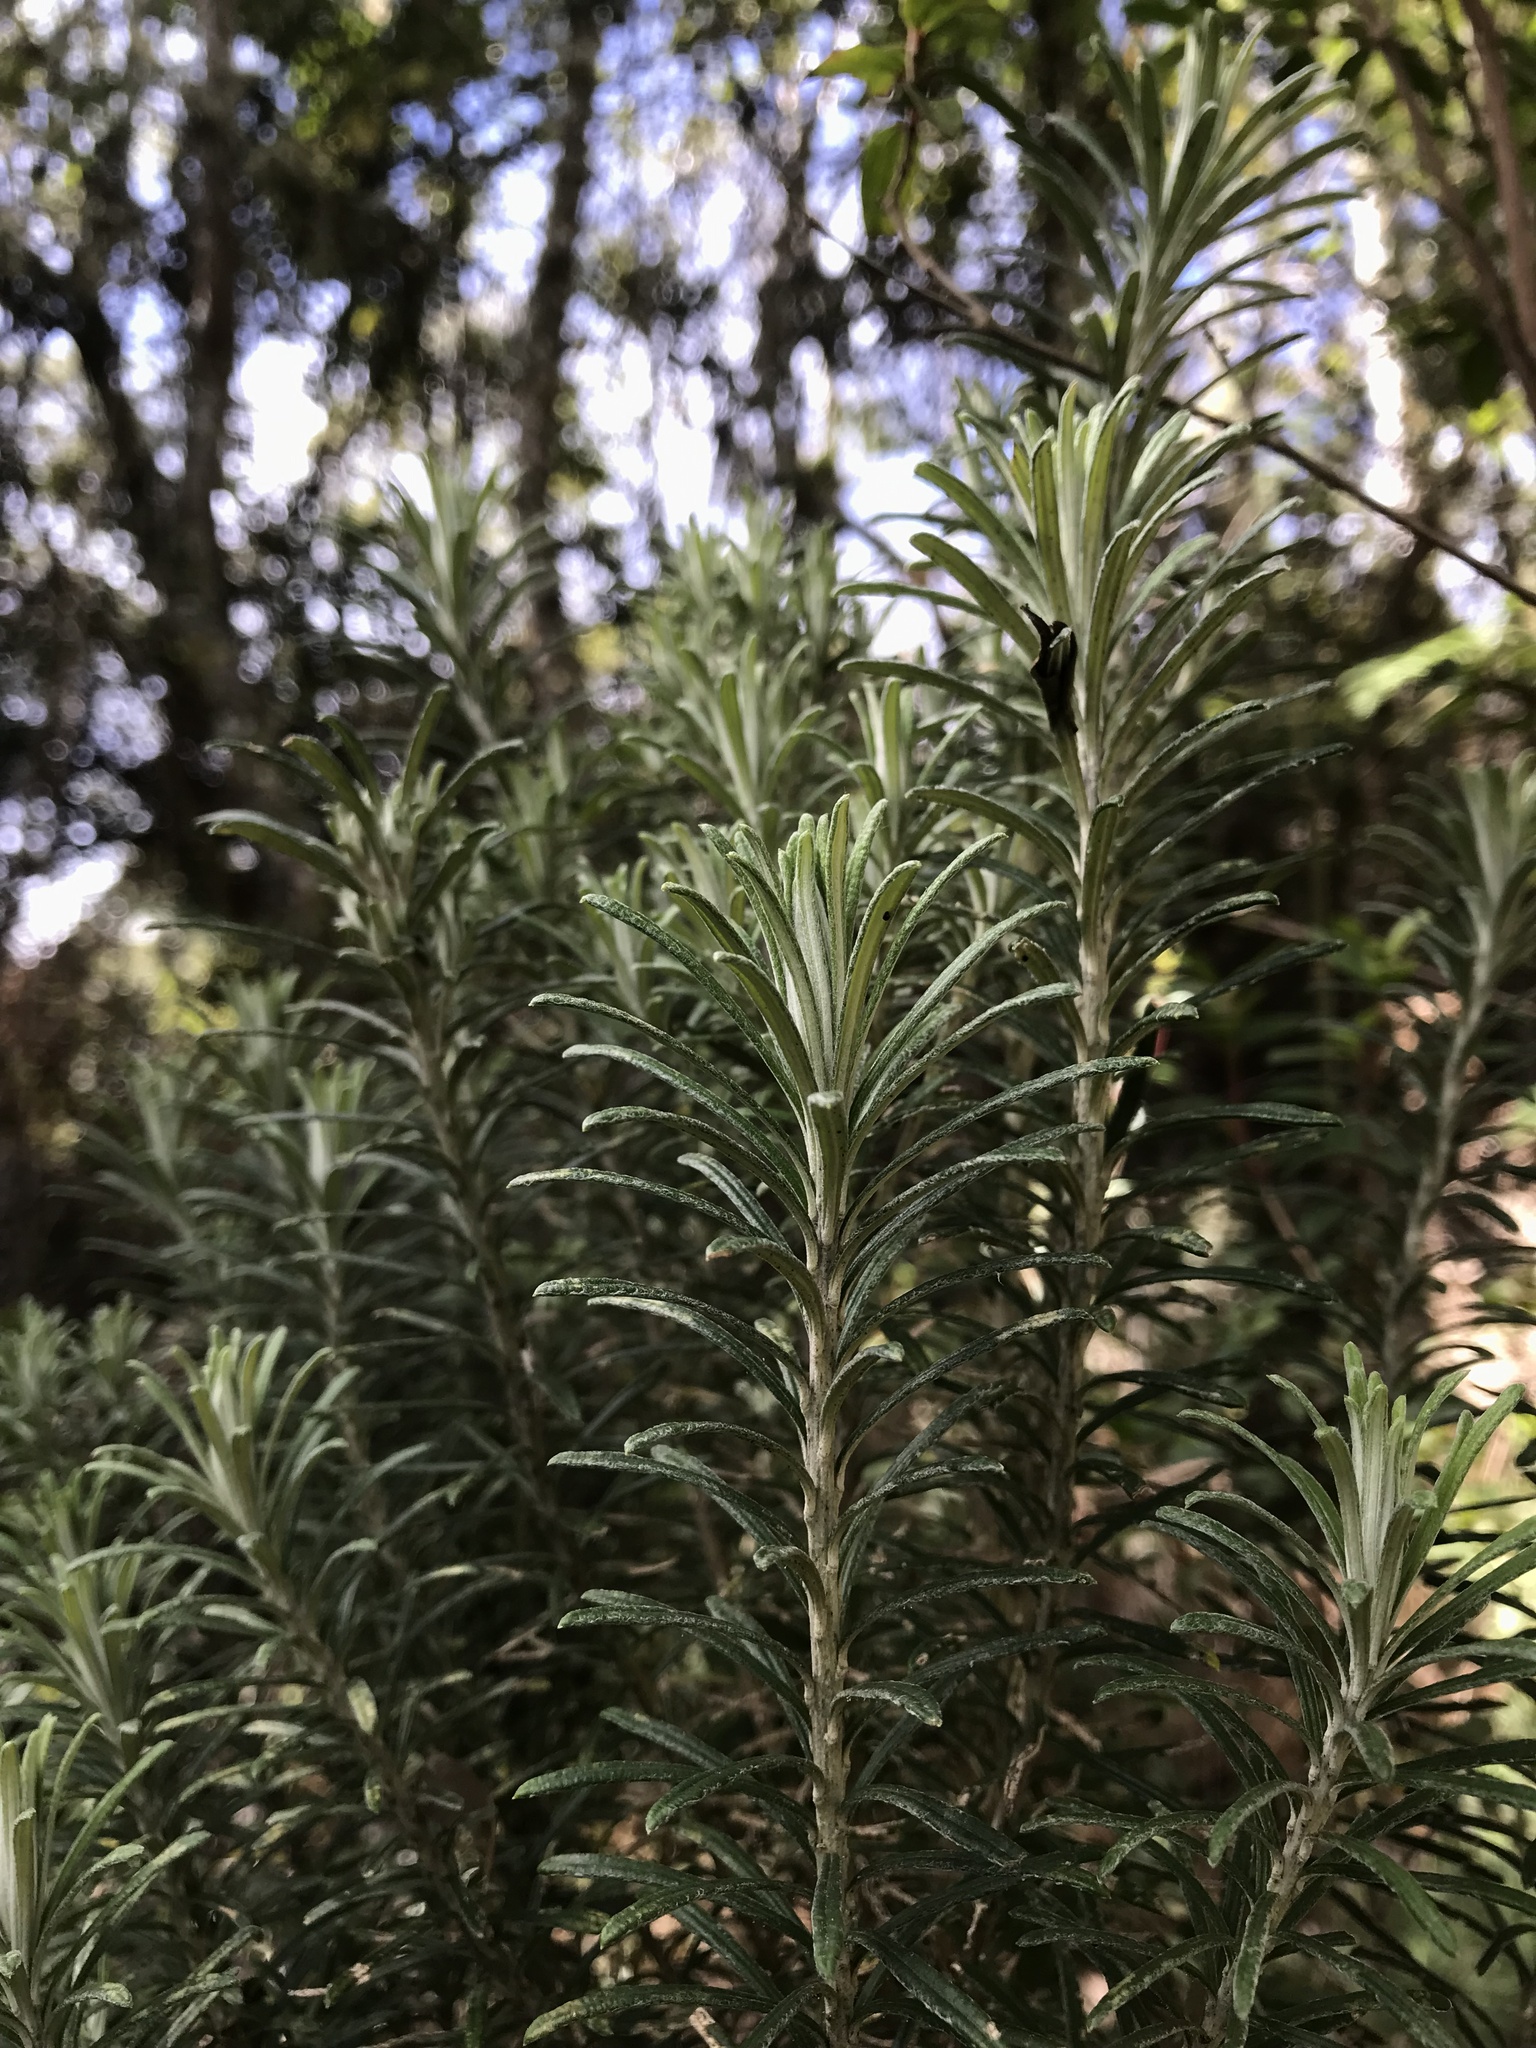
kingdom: Plantae
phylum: Tracheophyta
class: Magnoliopsida
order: Asterales
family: Asteraceae
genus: Linochilus
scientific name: Linochilus rosmarinifolius
